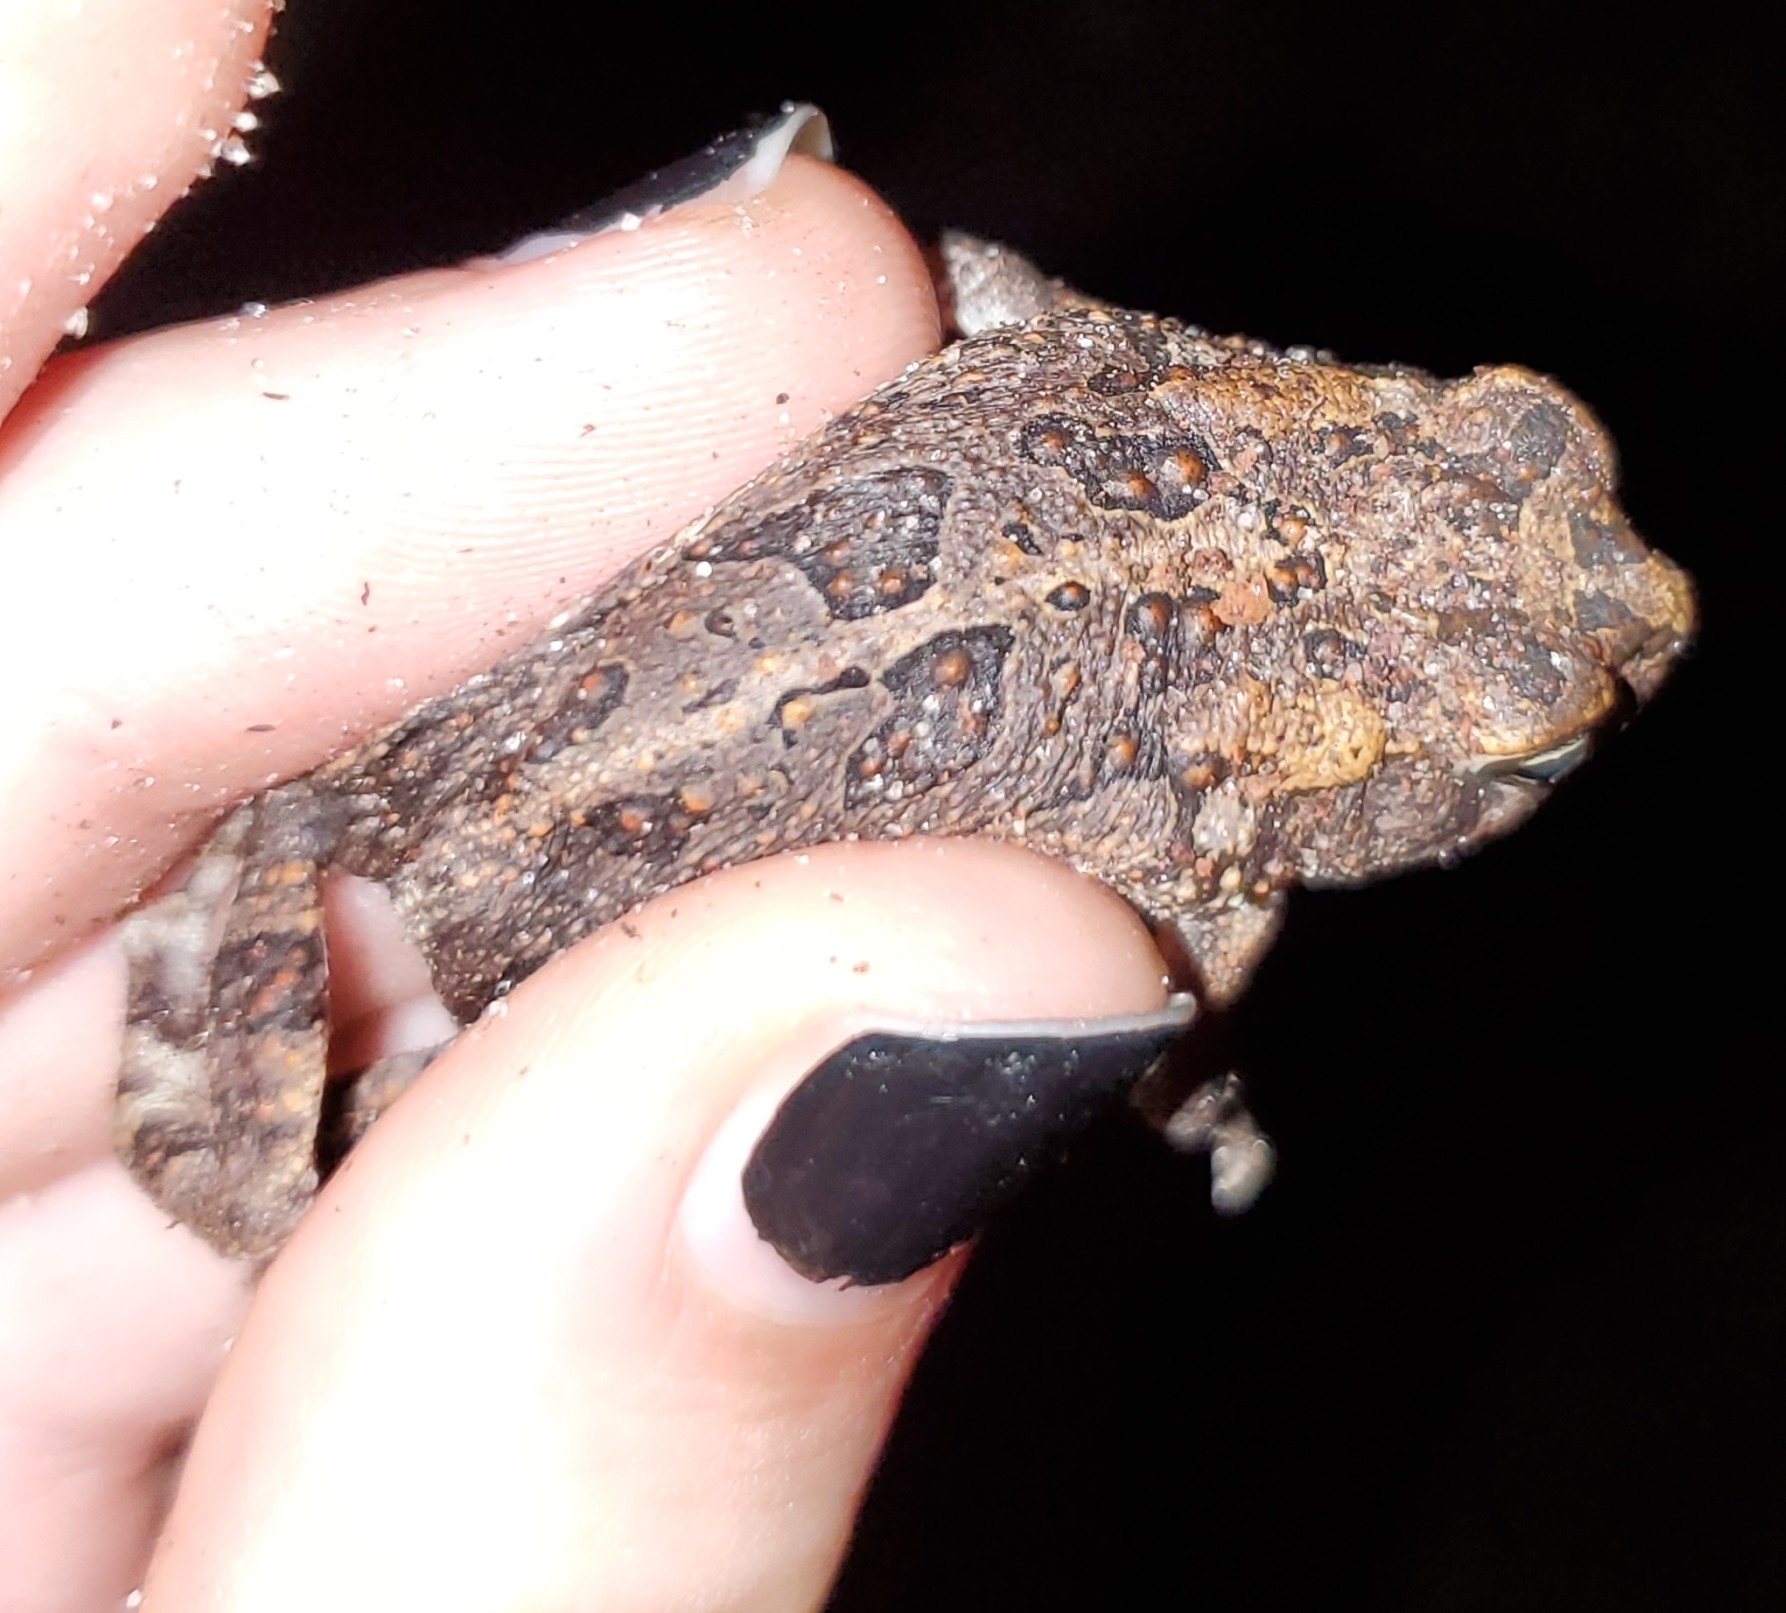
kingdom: Animalia
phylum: Chordata
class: Amphibia
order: Anura
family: Bufonidae
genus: Anaxyrus
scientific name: Anaxyrus terrestris
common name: Southern toad
